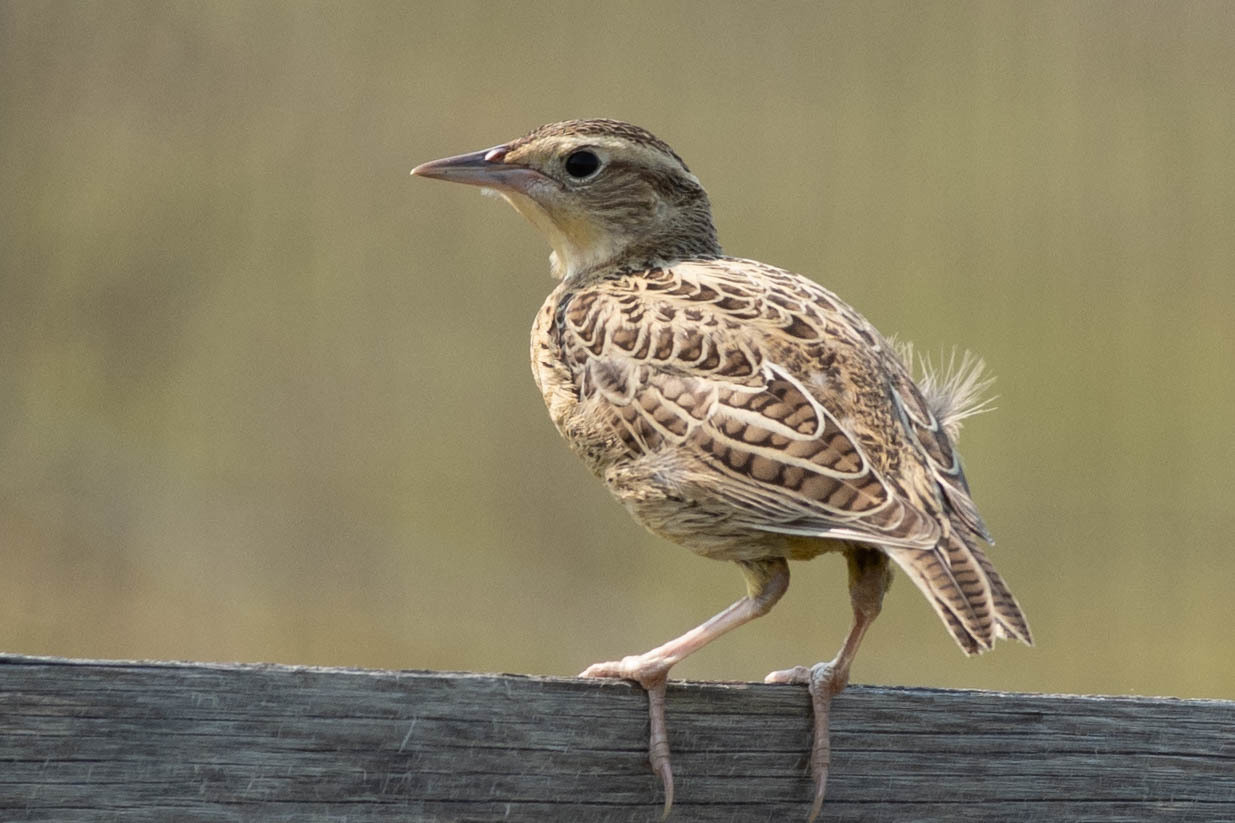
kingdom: Animalia
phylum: Chordata
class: Aves
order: Passeriformes
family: Icteridae
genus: Sturnella
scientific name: Sturnella neglecta
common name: Western meadowlark
